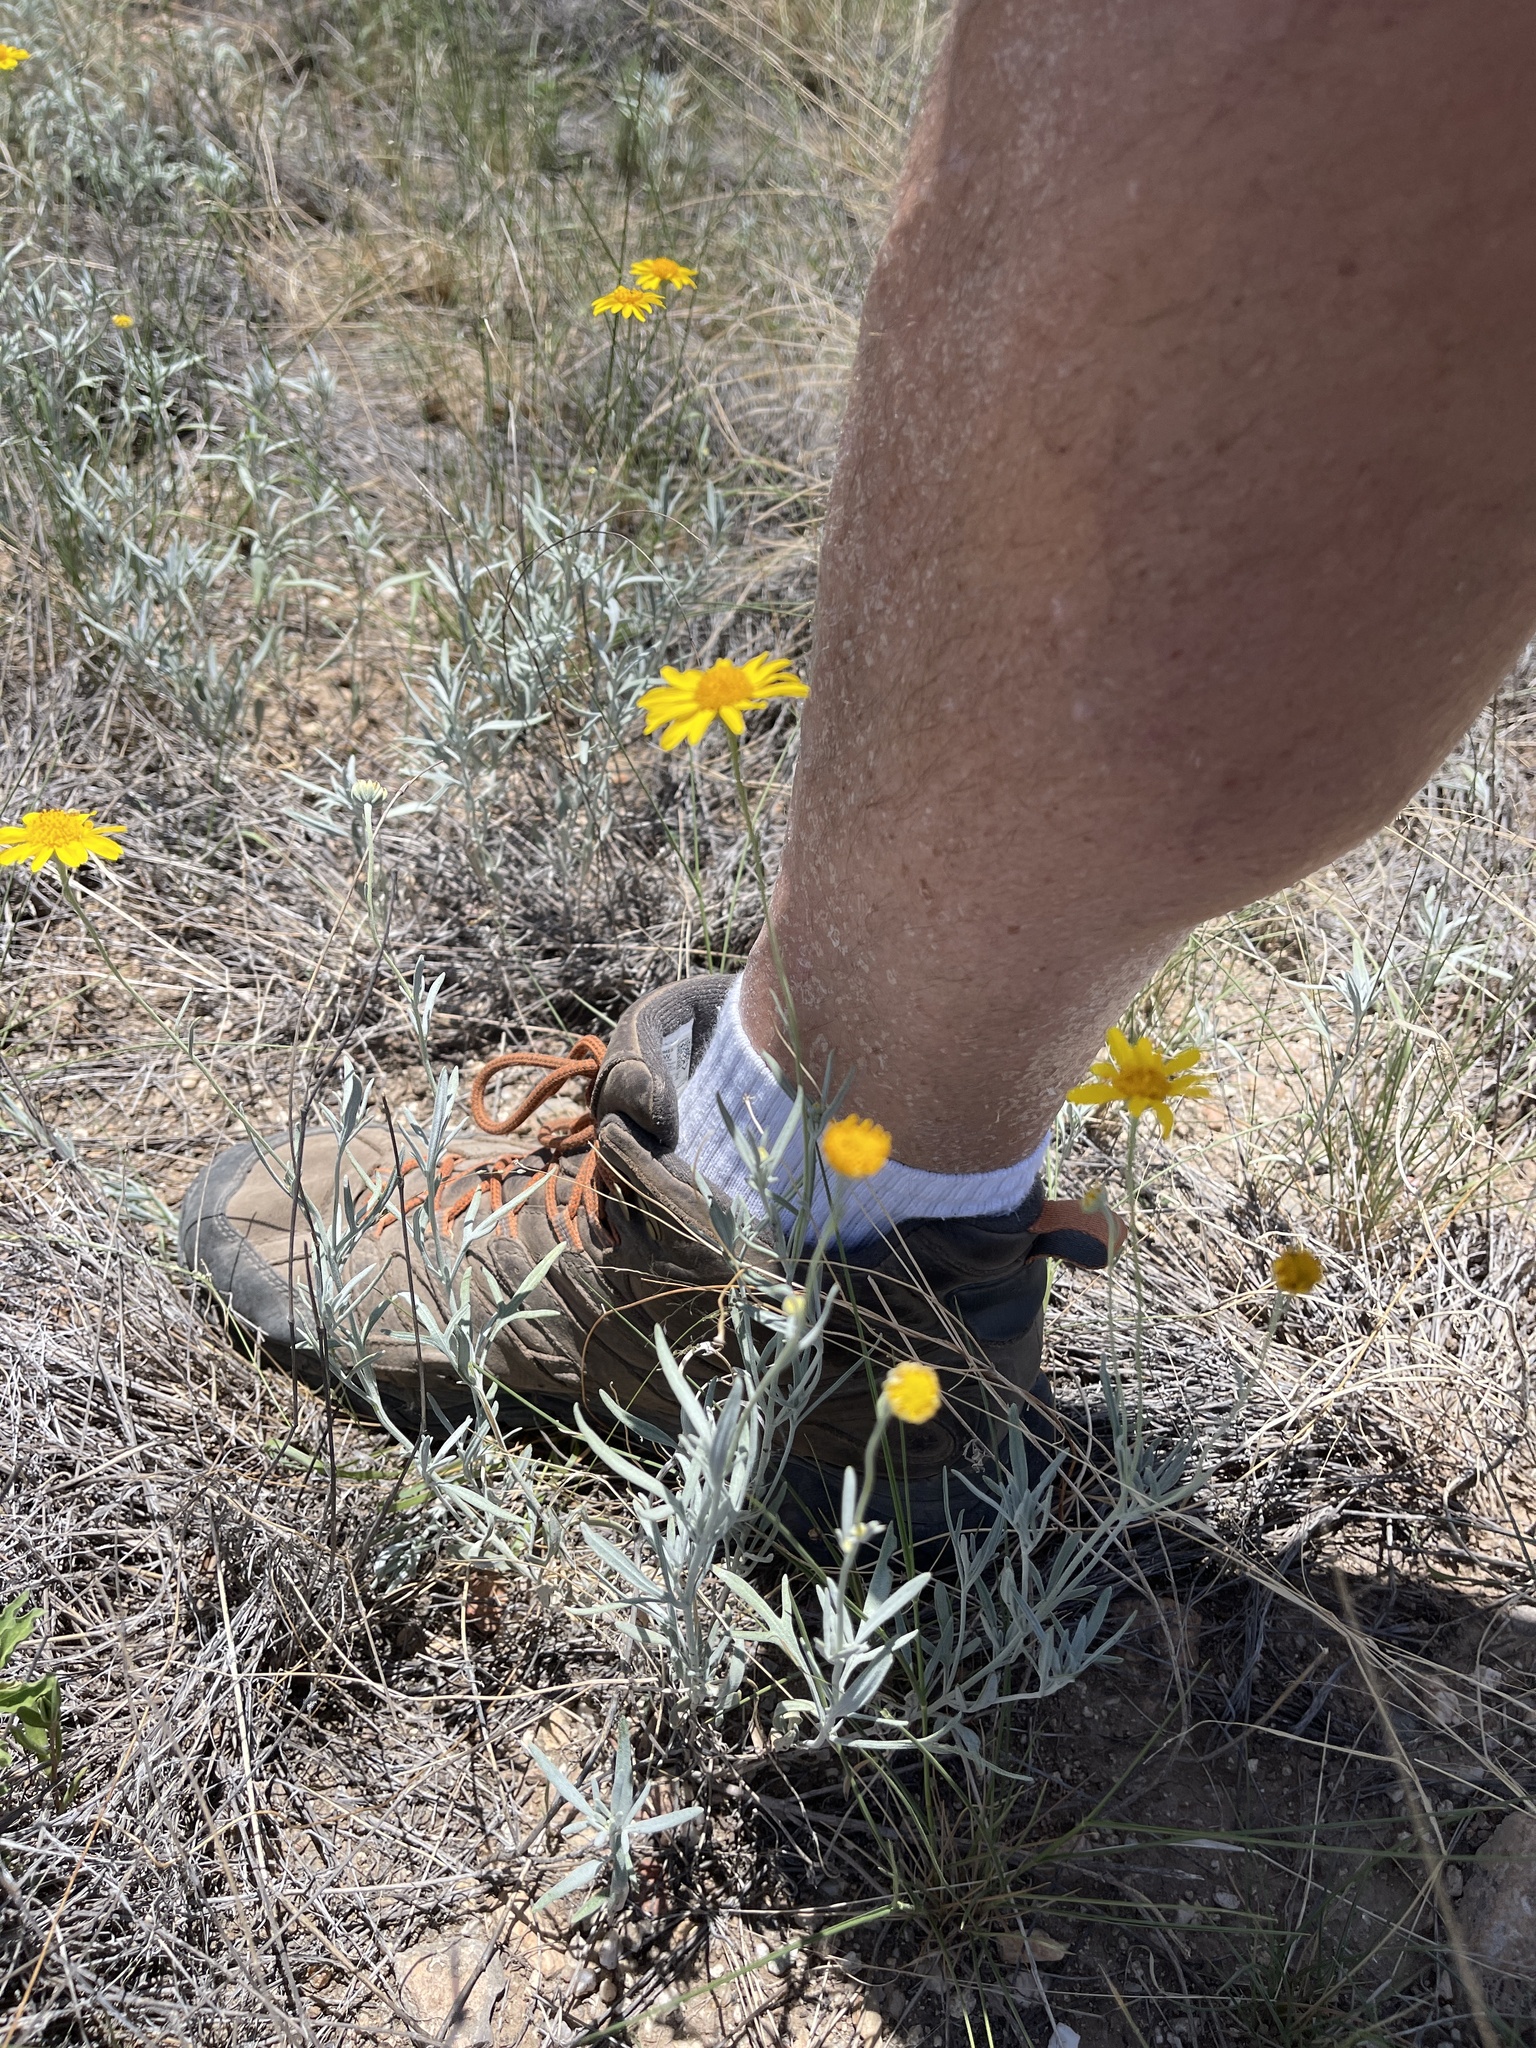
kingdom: Plantae
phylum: Tracheophyta
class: Magnoliopsida
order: Asterales
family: Asteraceae
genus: Picradeniopsis
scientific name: Picradeniopsis absinthifolia
